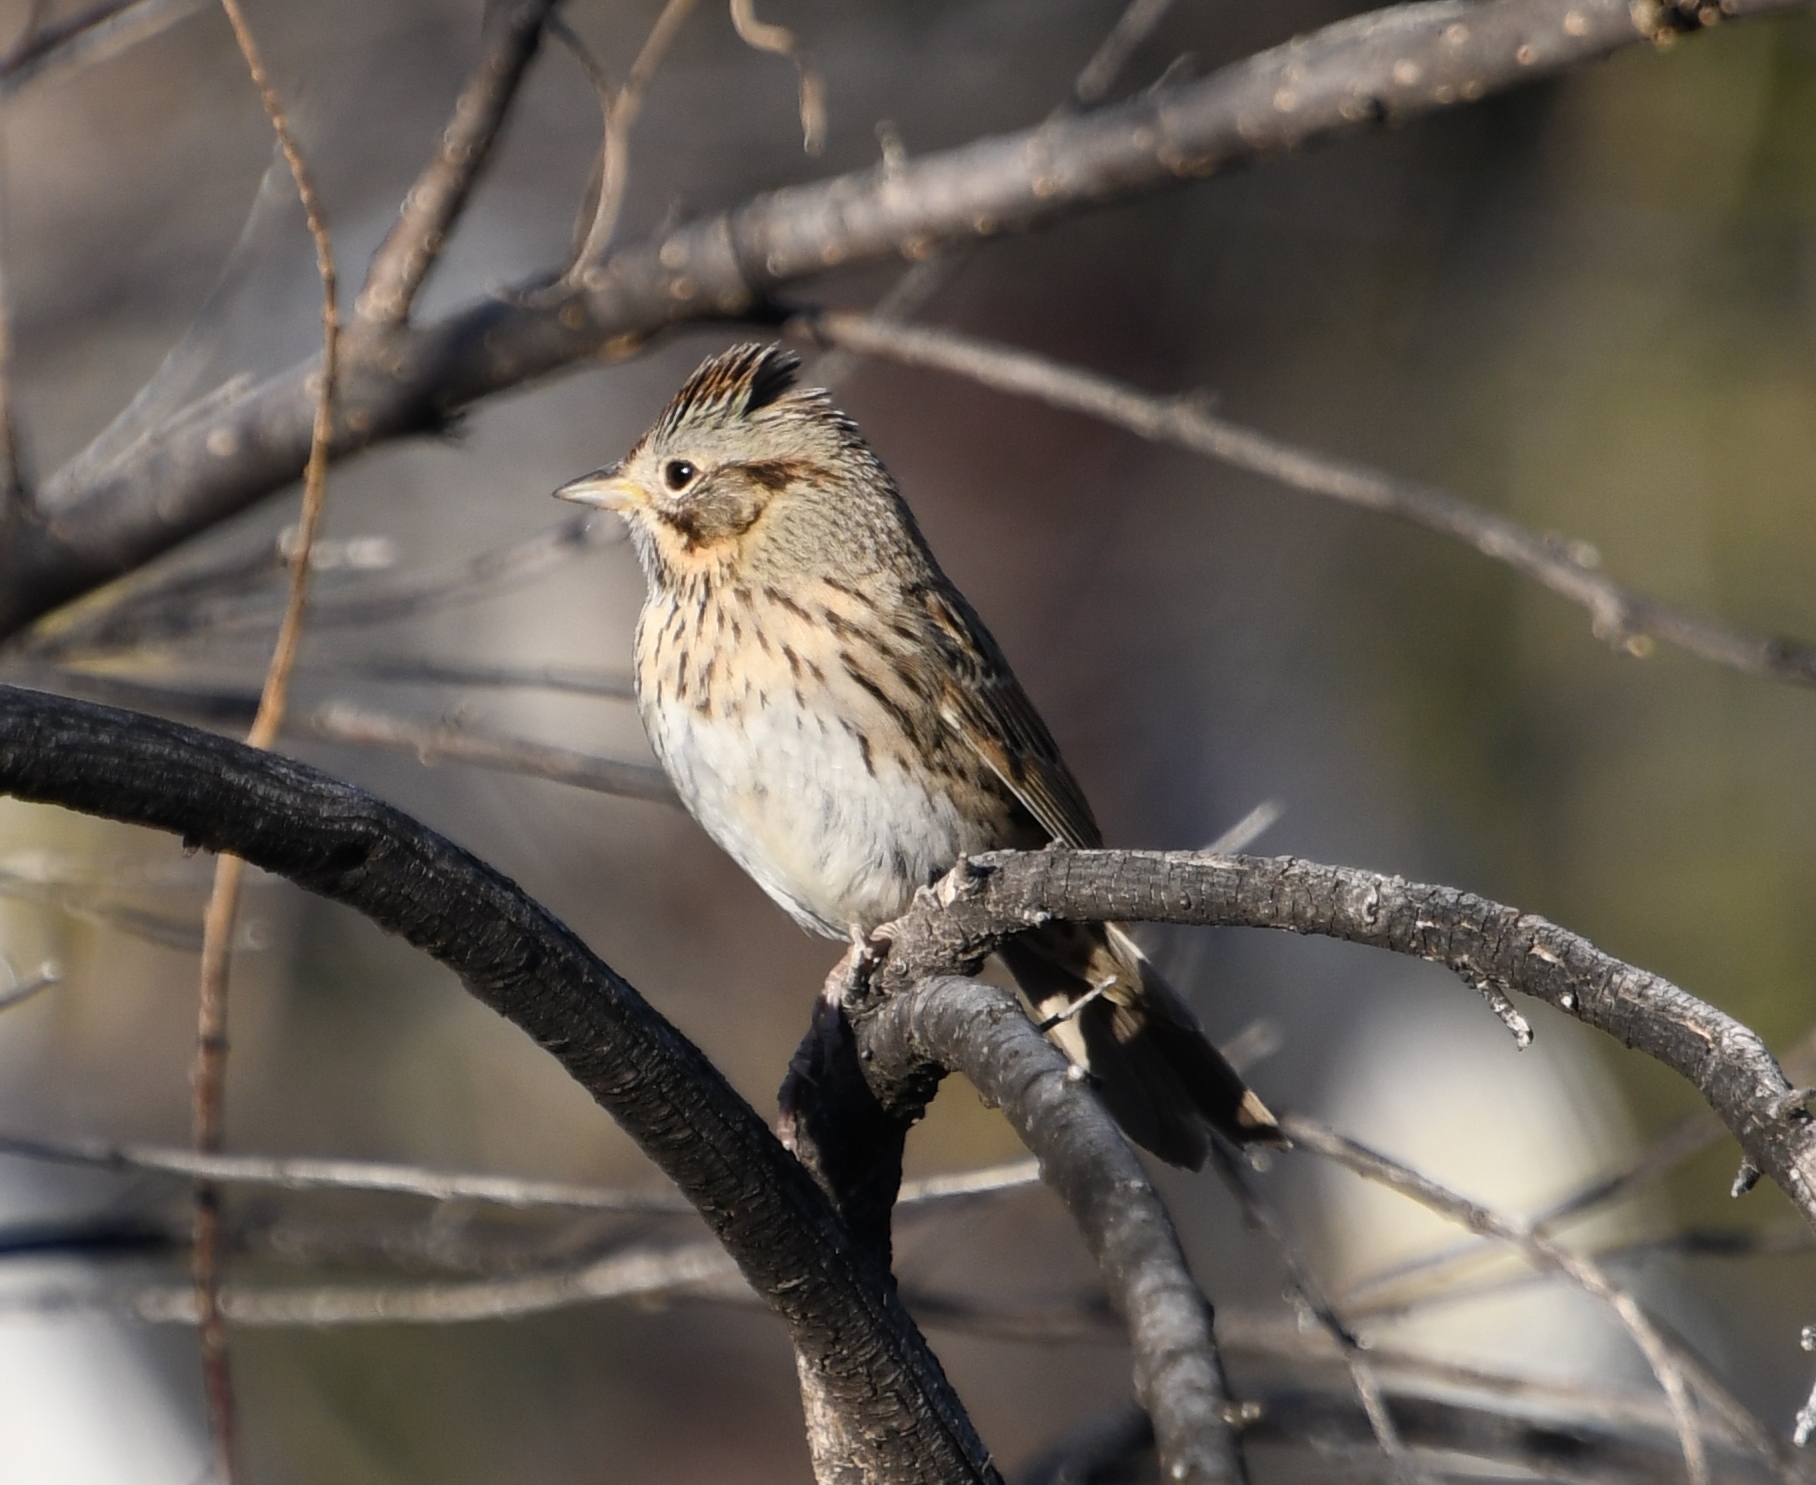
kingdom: Animalia
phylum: Chordata
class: Aves
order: Passeriformes
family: Passerellidae
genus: Melospiza
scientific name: Melospiza lincolnii
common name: Lincoln's sparrow
